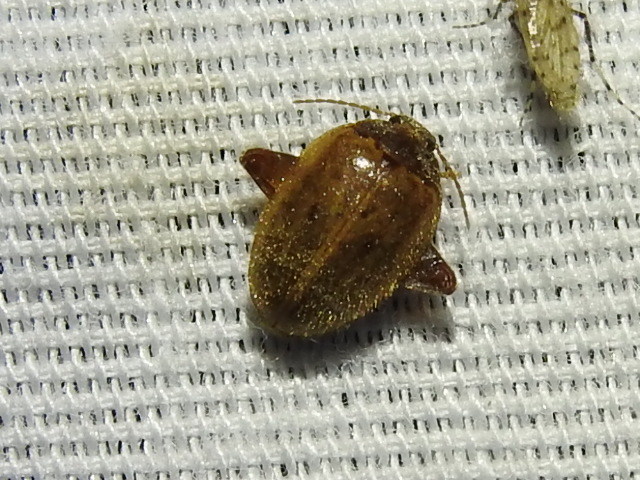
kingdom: Animalia
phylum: Arthropoda
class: Insecta
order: Coleoptera
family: Scirtidae
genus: Ora
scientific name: Ora discoidea
